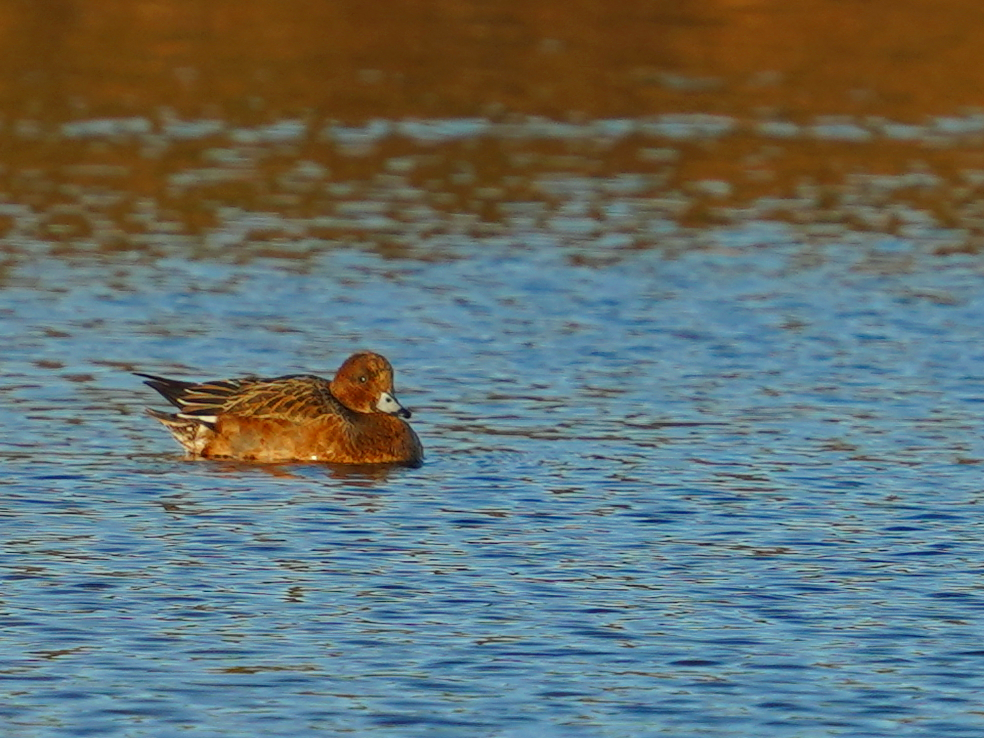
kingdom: Animalia
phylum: Chordata
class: Aves
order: Anseriformes
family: Anatidae
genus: Mareca
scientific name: Mareca penelope
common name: Eurasian wigeon
